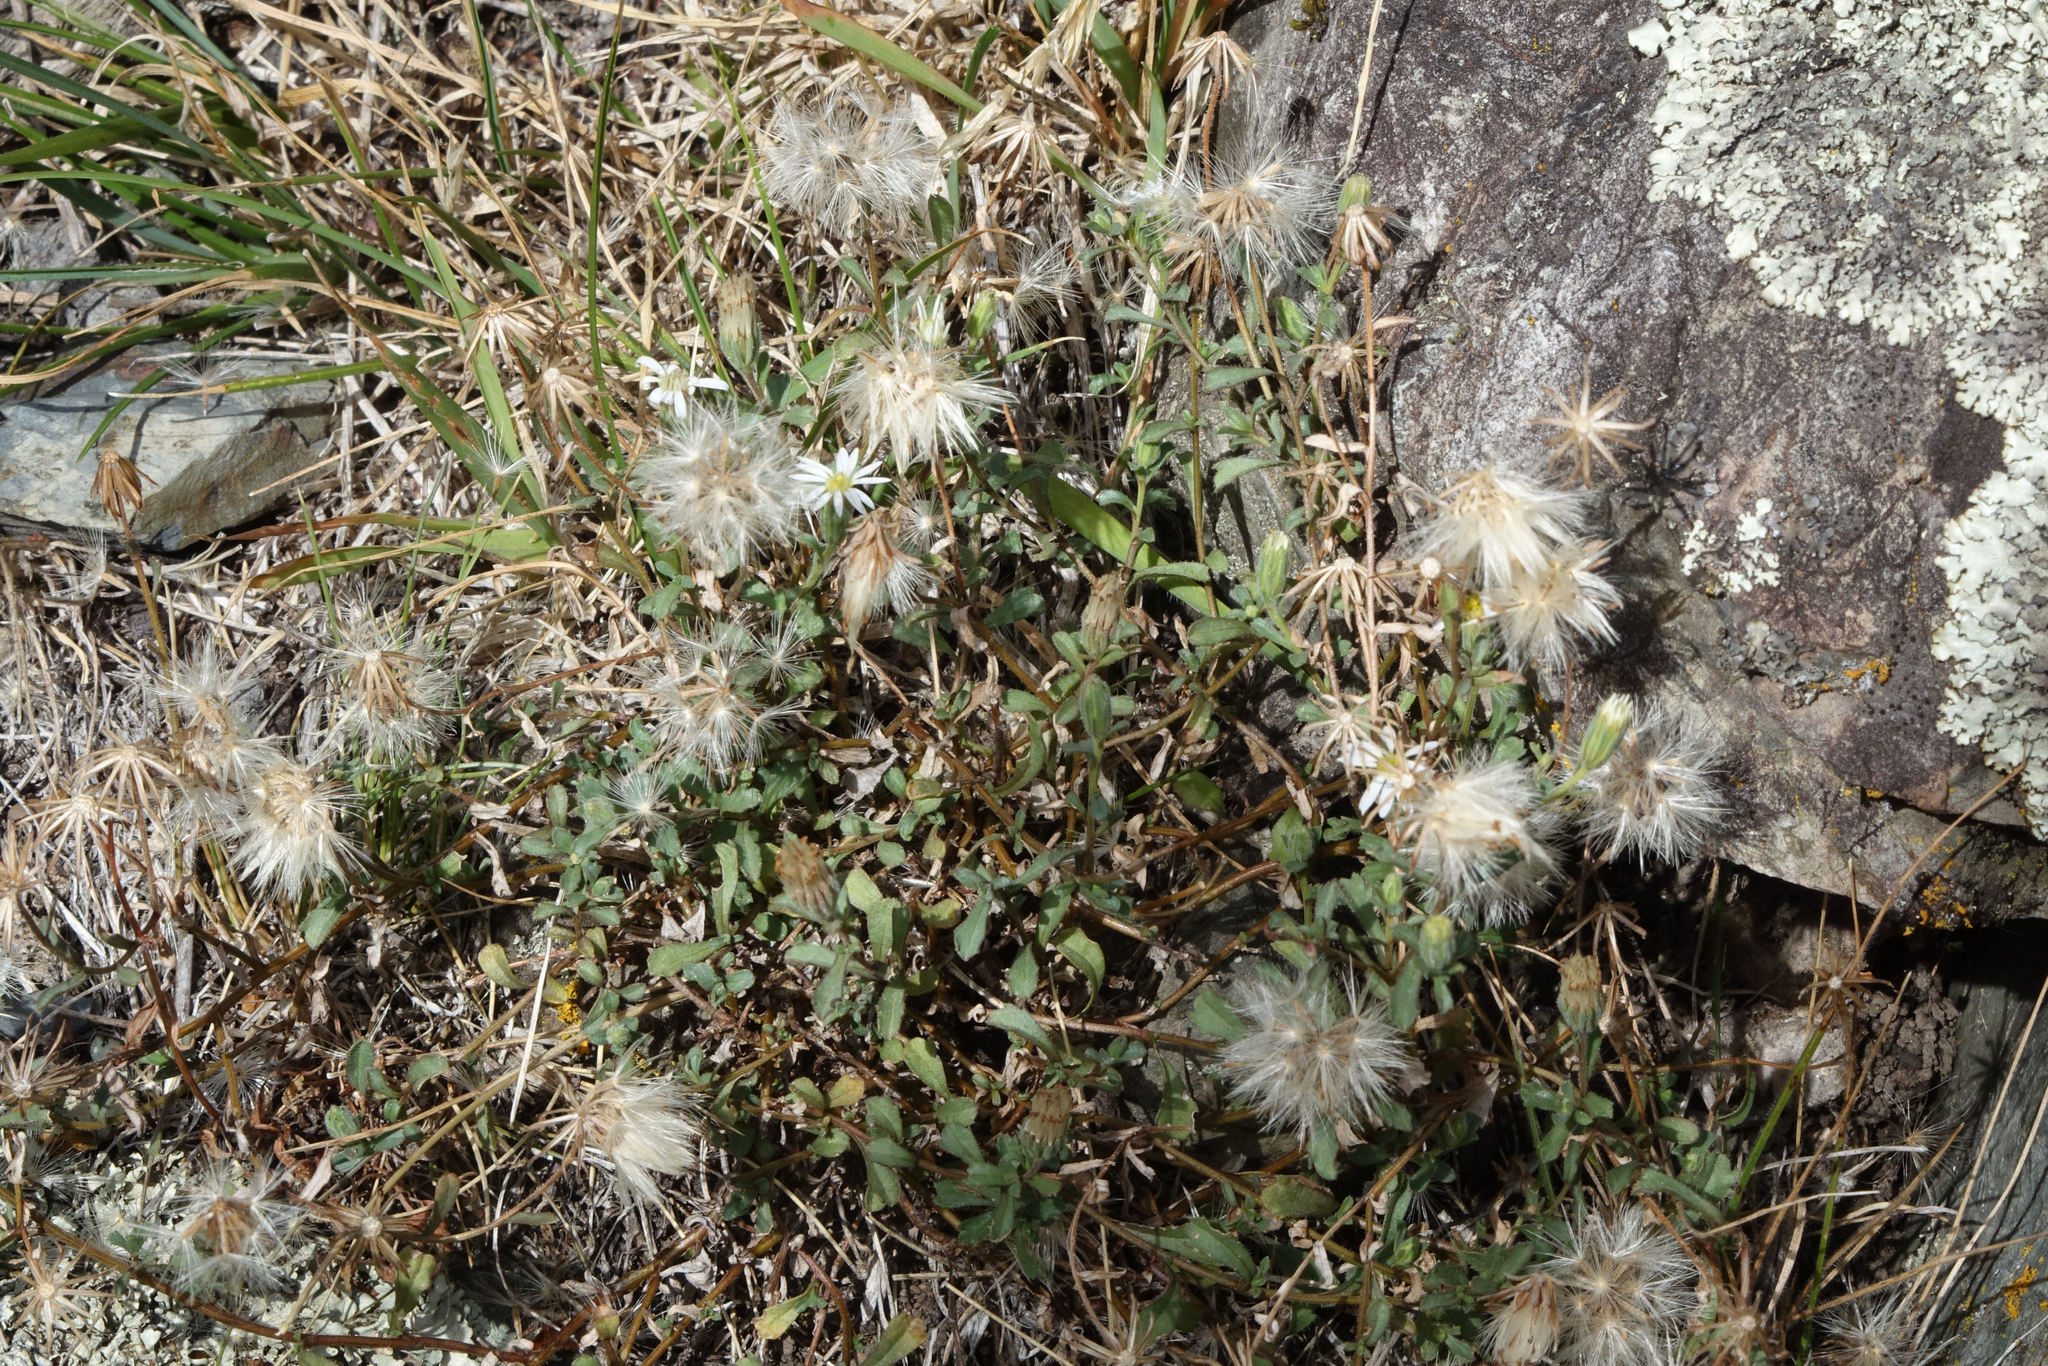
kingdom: Plantae
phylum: Tracheophyta
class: Magnoliopsida
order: Asterales
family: Asteraceae
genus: Vittadinia
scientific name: Vittadinia australis
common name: White fuzzweed
